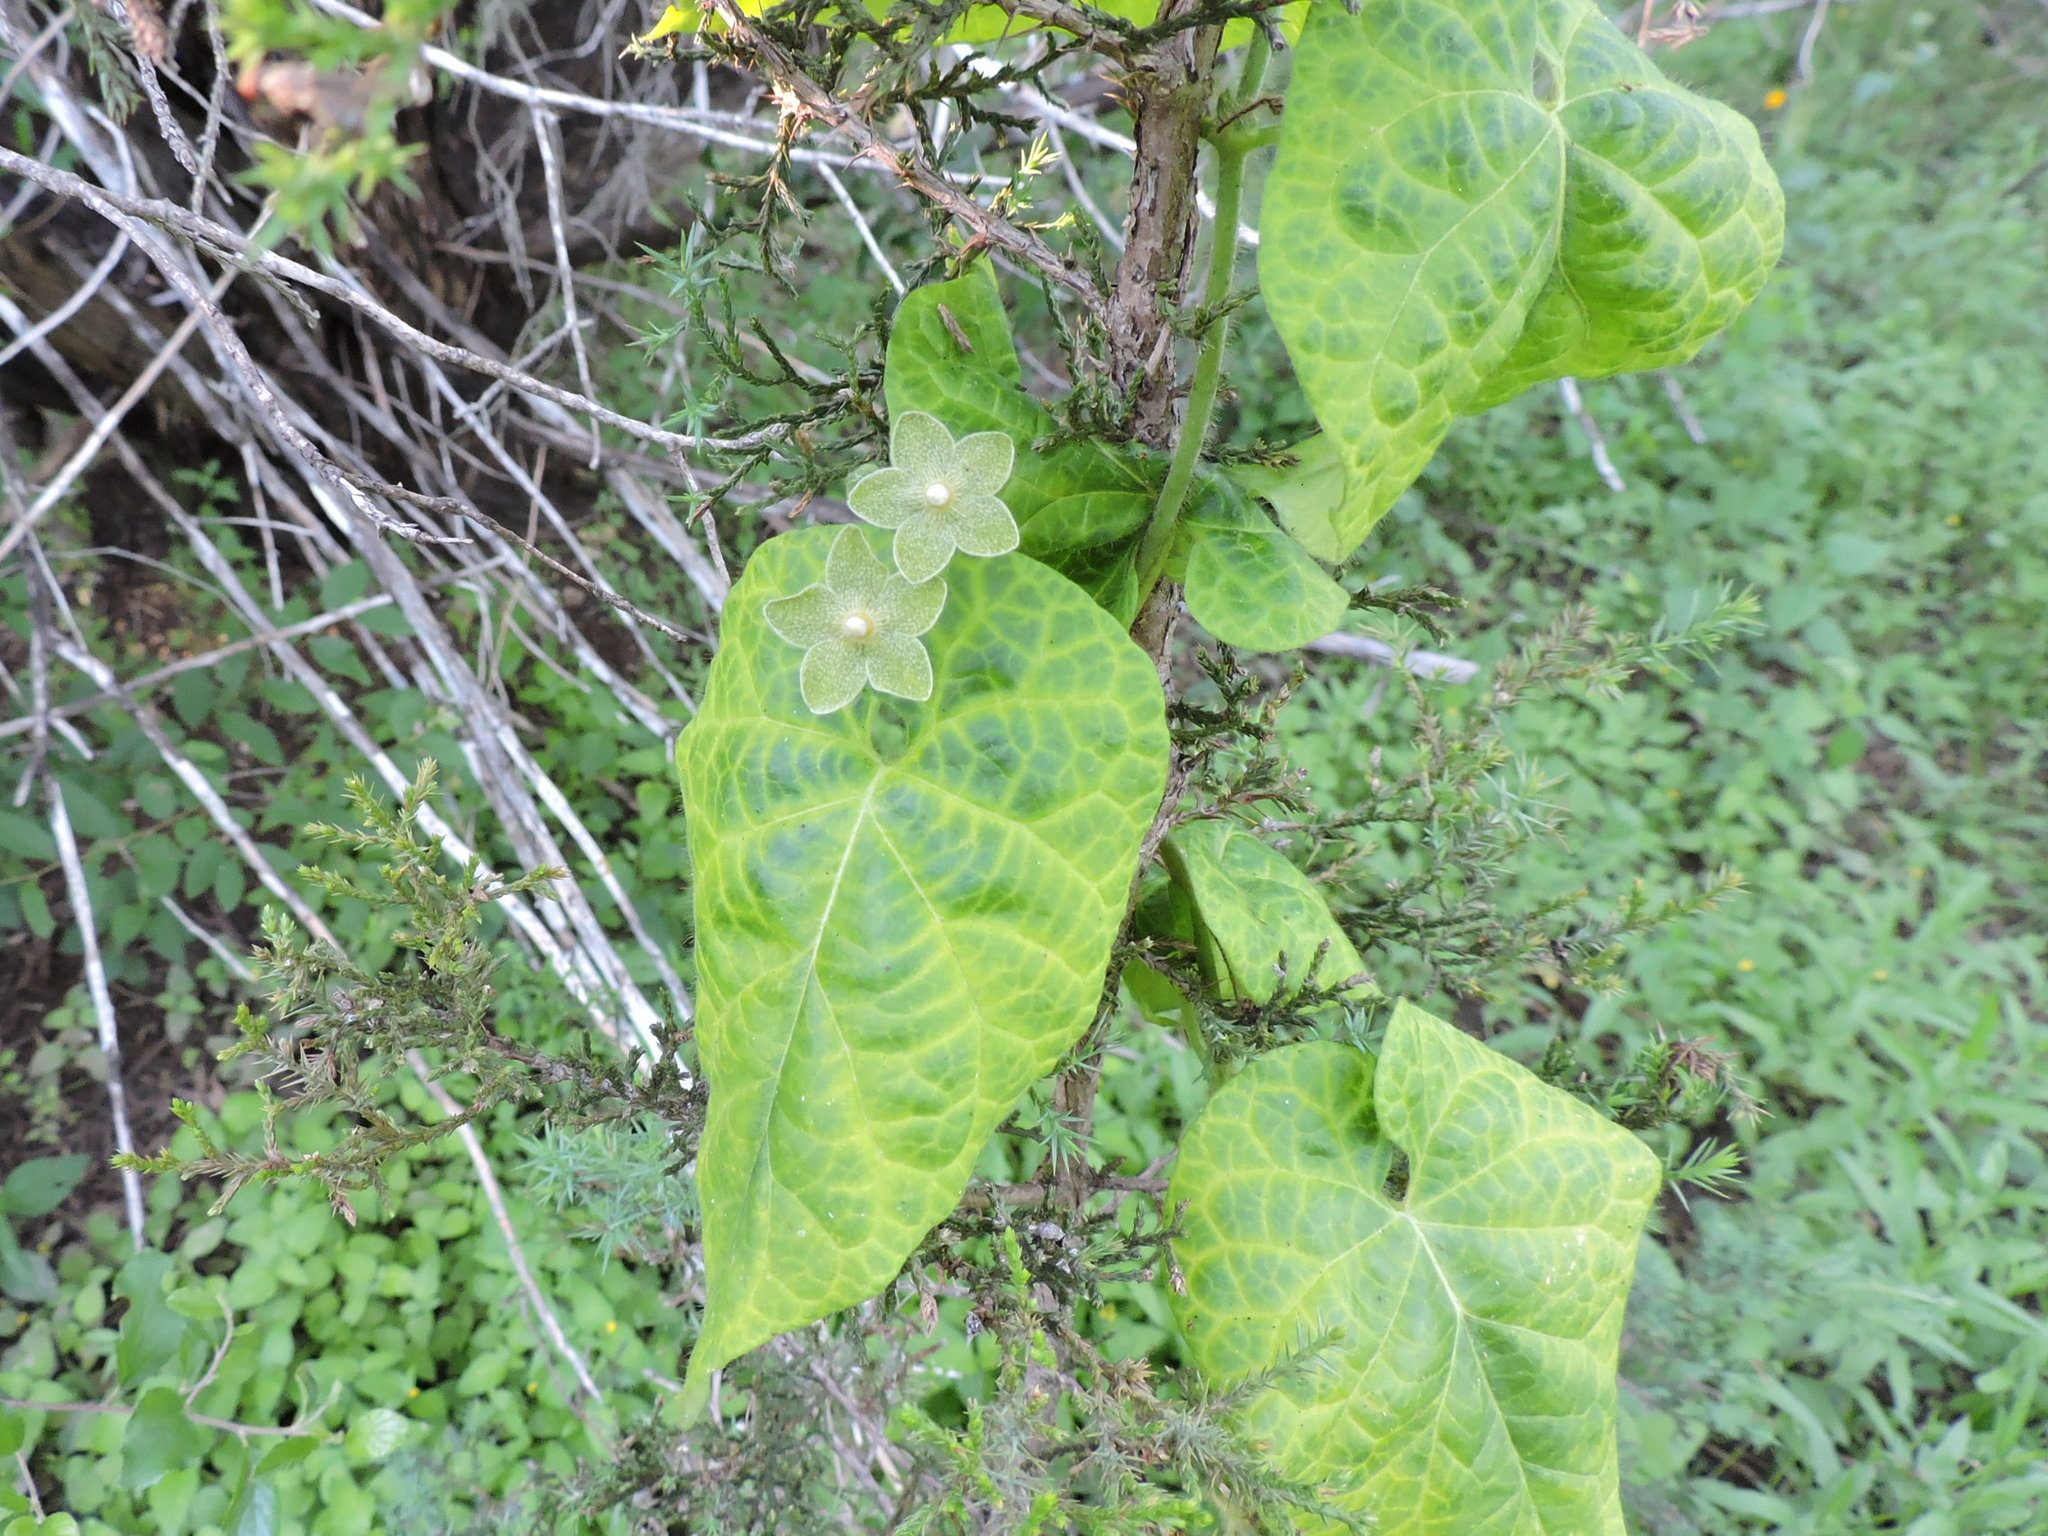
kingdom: Plantae
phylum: Tracheophyta
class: Magnoliopsida
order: Gentianales
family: Apocynaceae
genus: Dictyanthus
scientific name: Dictyanthus reticulatus
